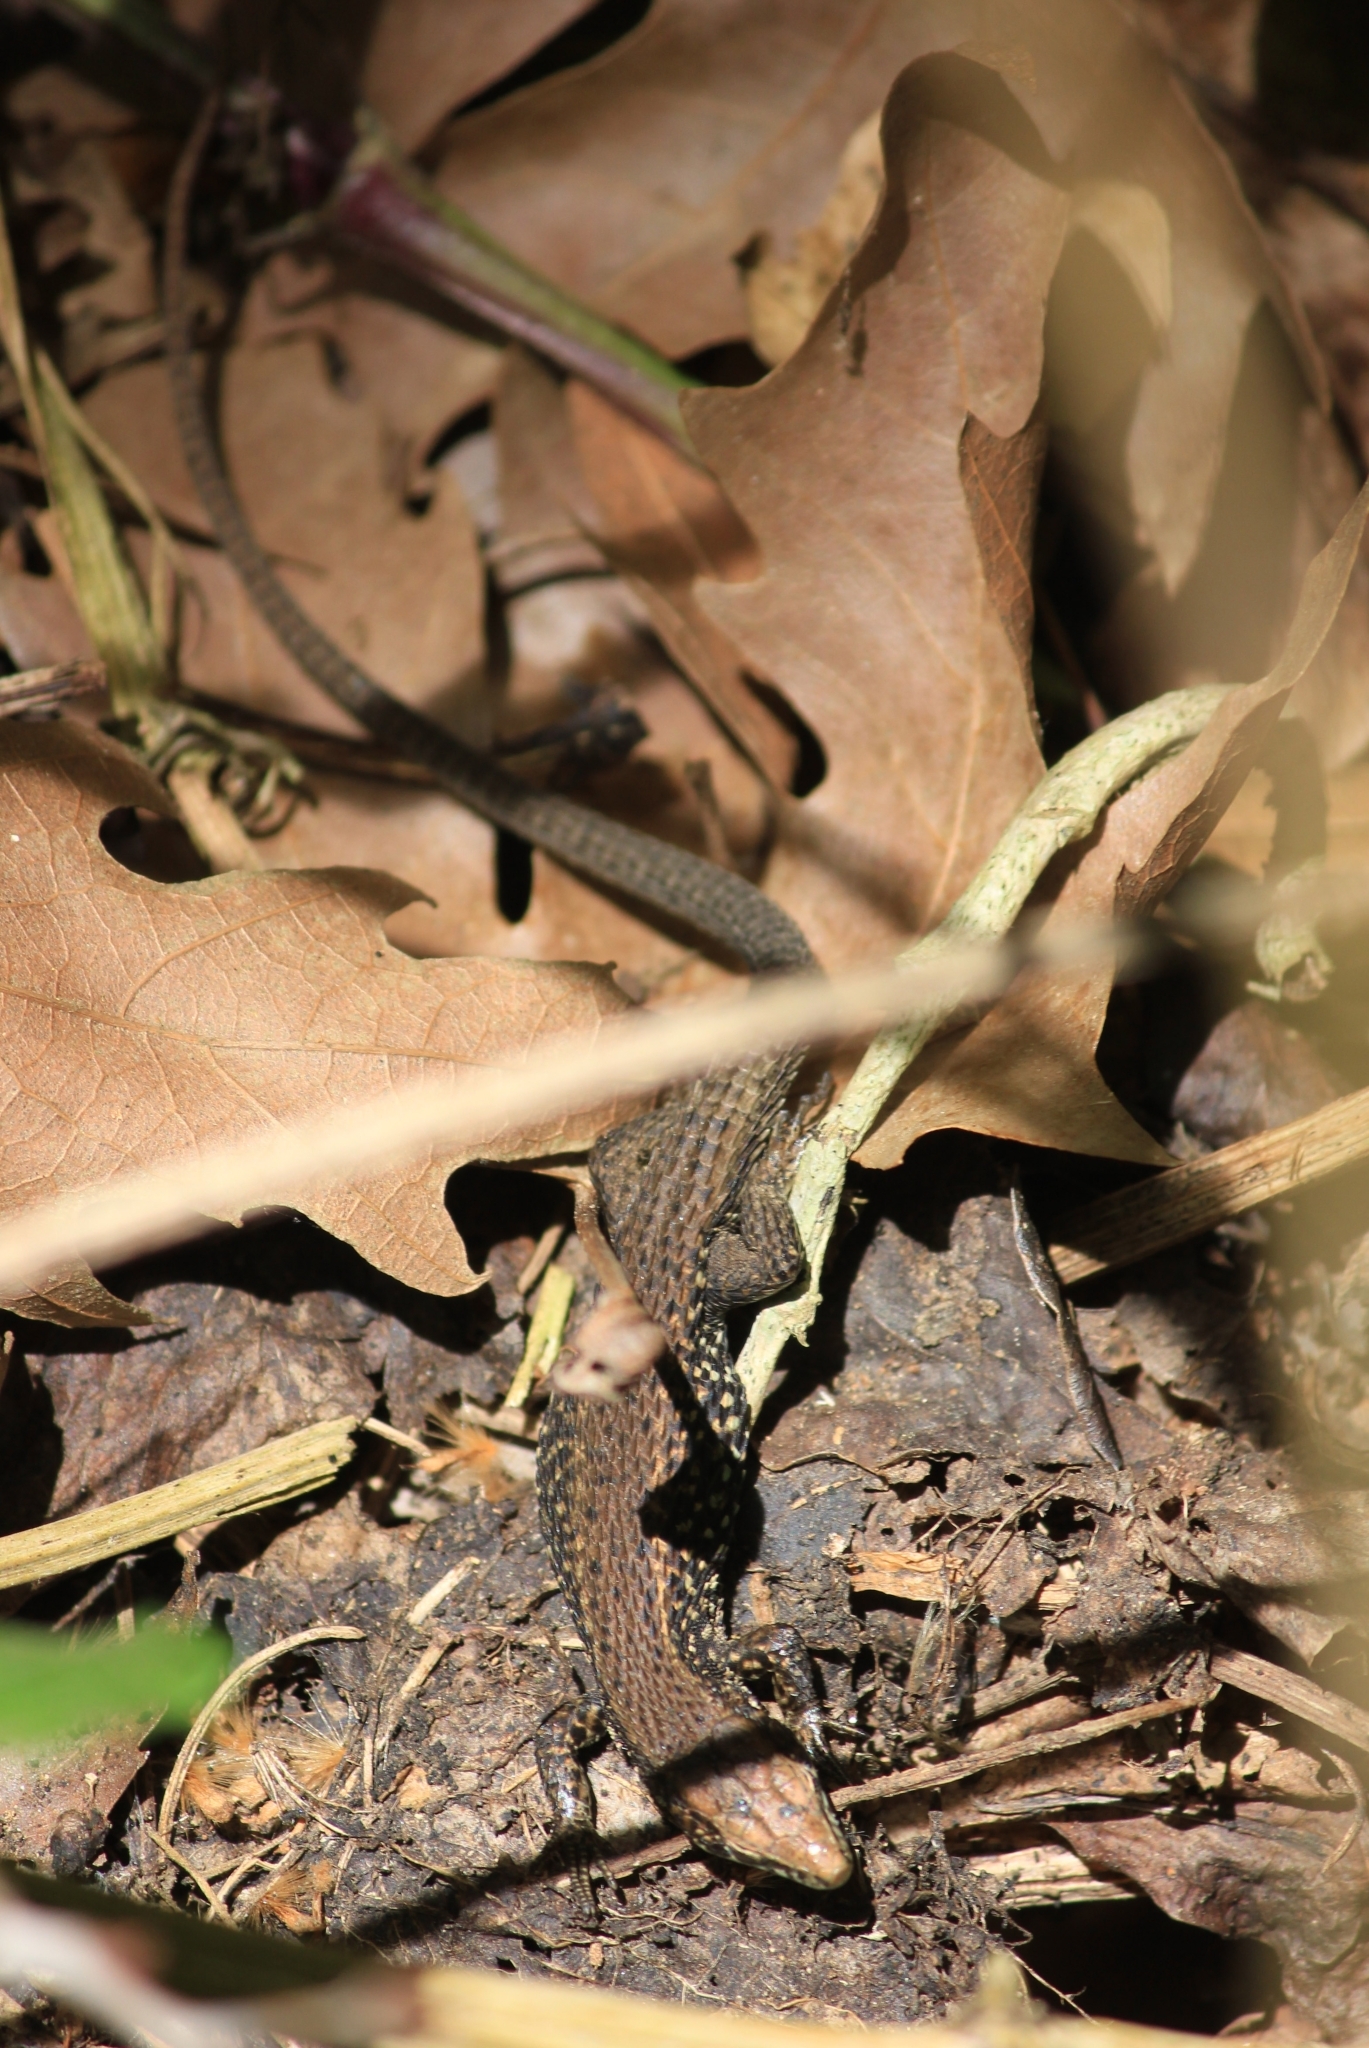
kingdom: Animalia
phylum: Chordata
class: Squamata
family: Lacertidae
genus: Algyroides
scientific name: Algyroides moreoticus
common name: Greek algyroides
